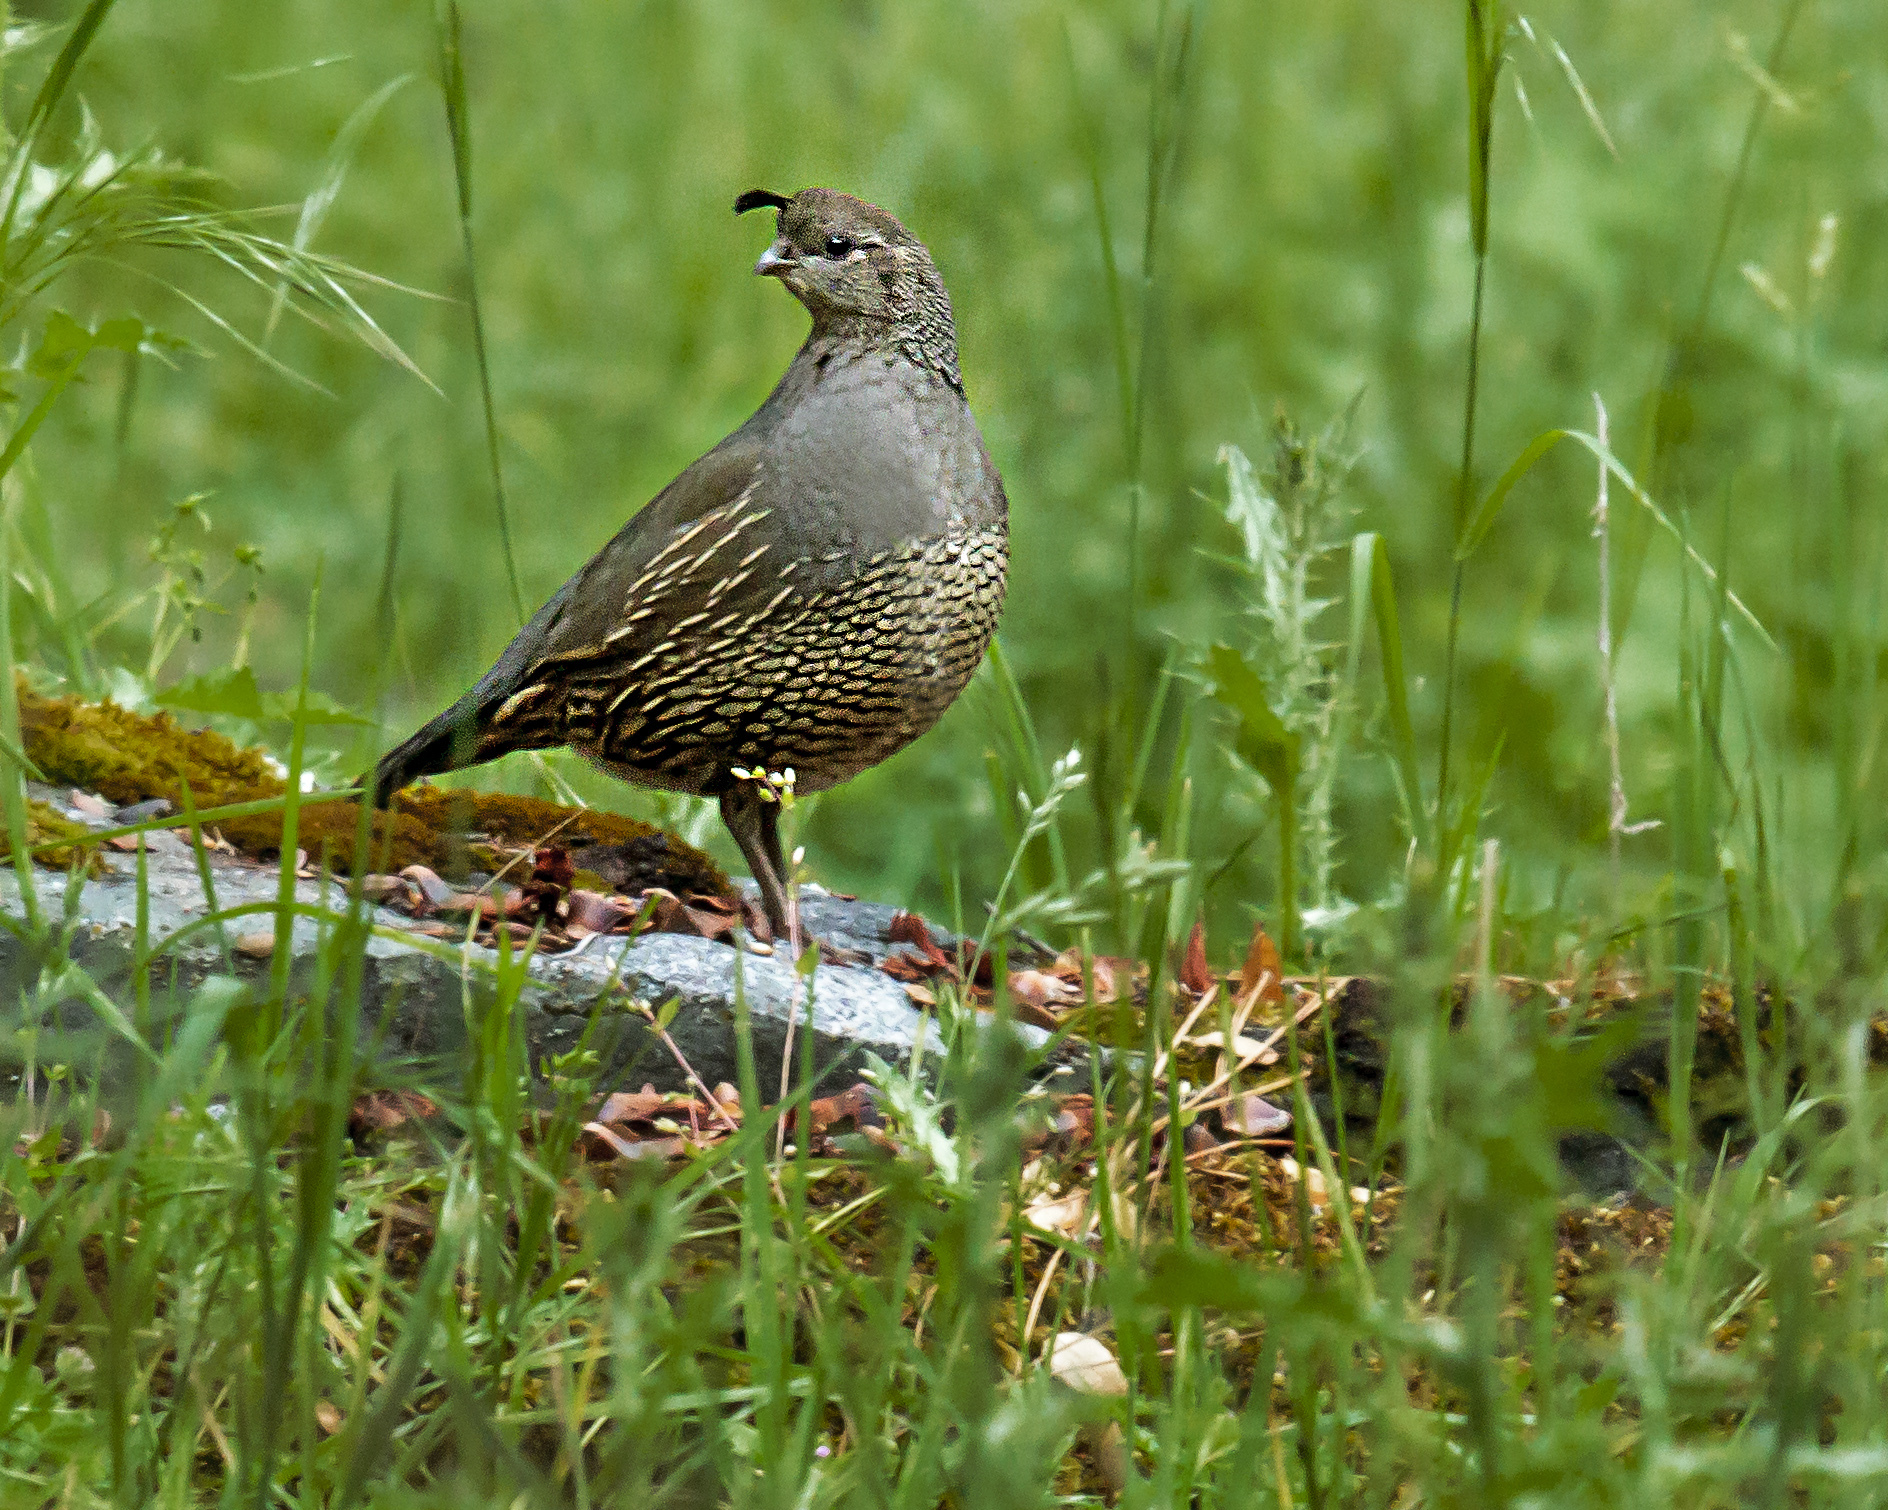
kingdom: Animalia
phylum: Chordata
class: Aves
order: Galliformes
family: Odontophoridae
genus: Callipepla
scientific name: Callipepla californica
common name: California quail
